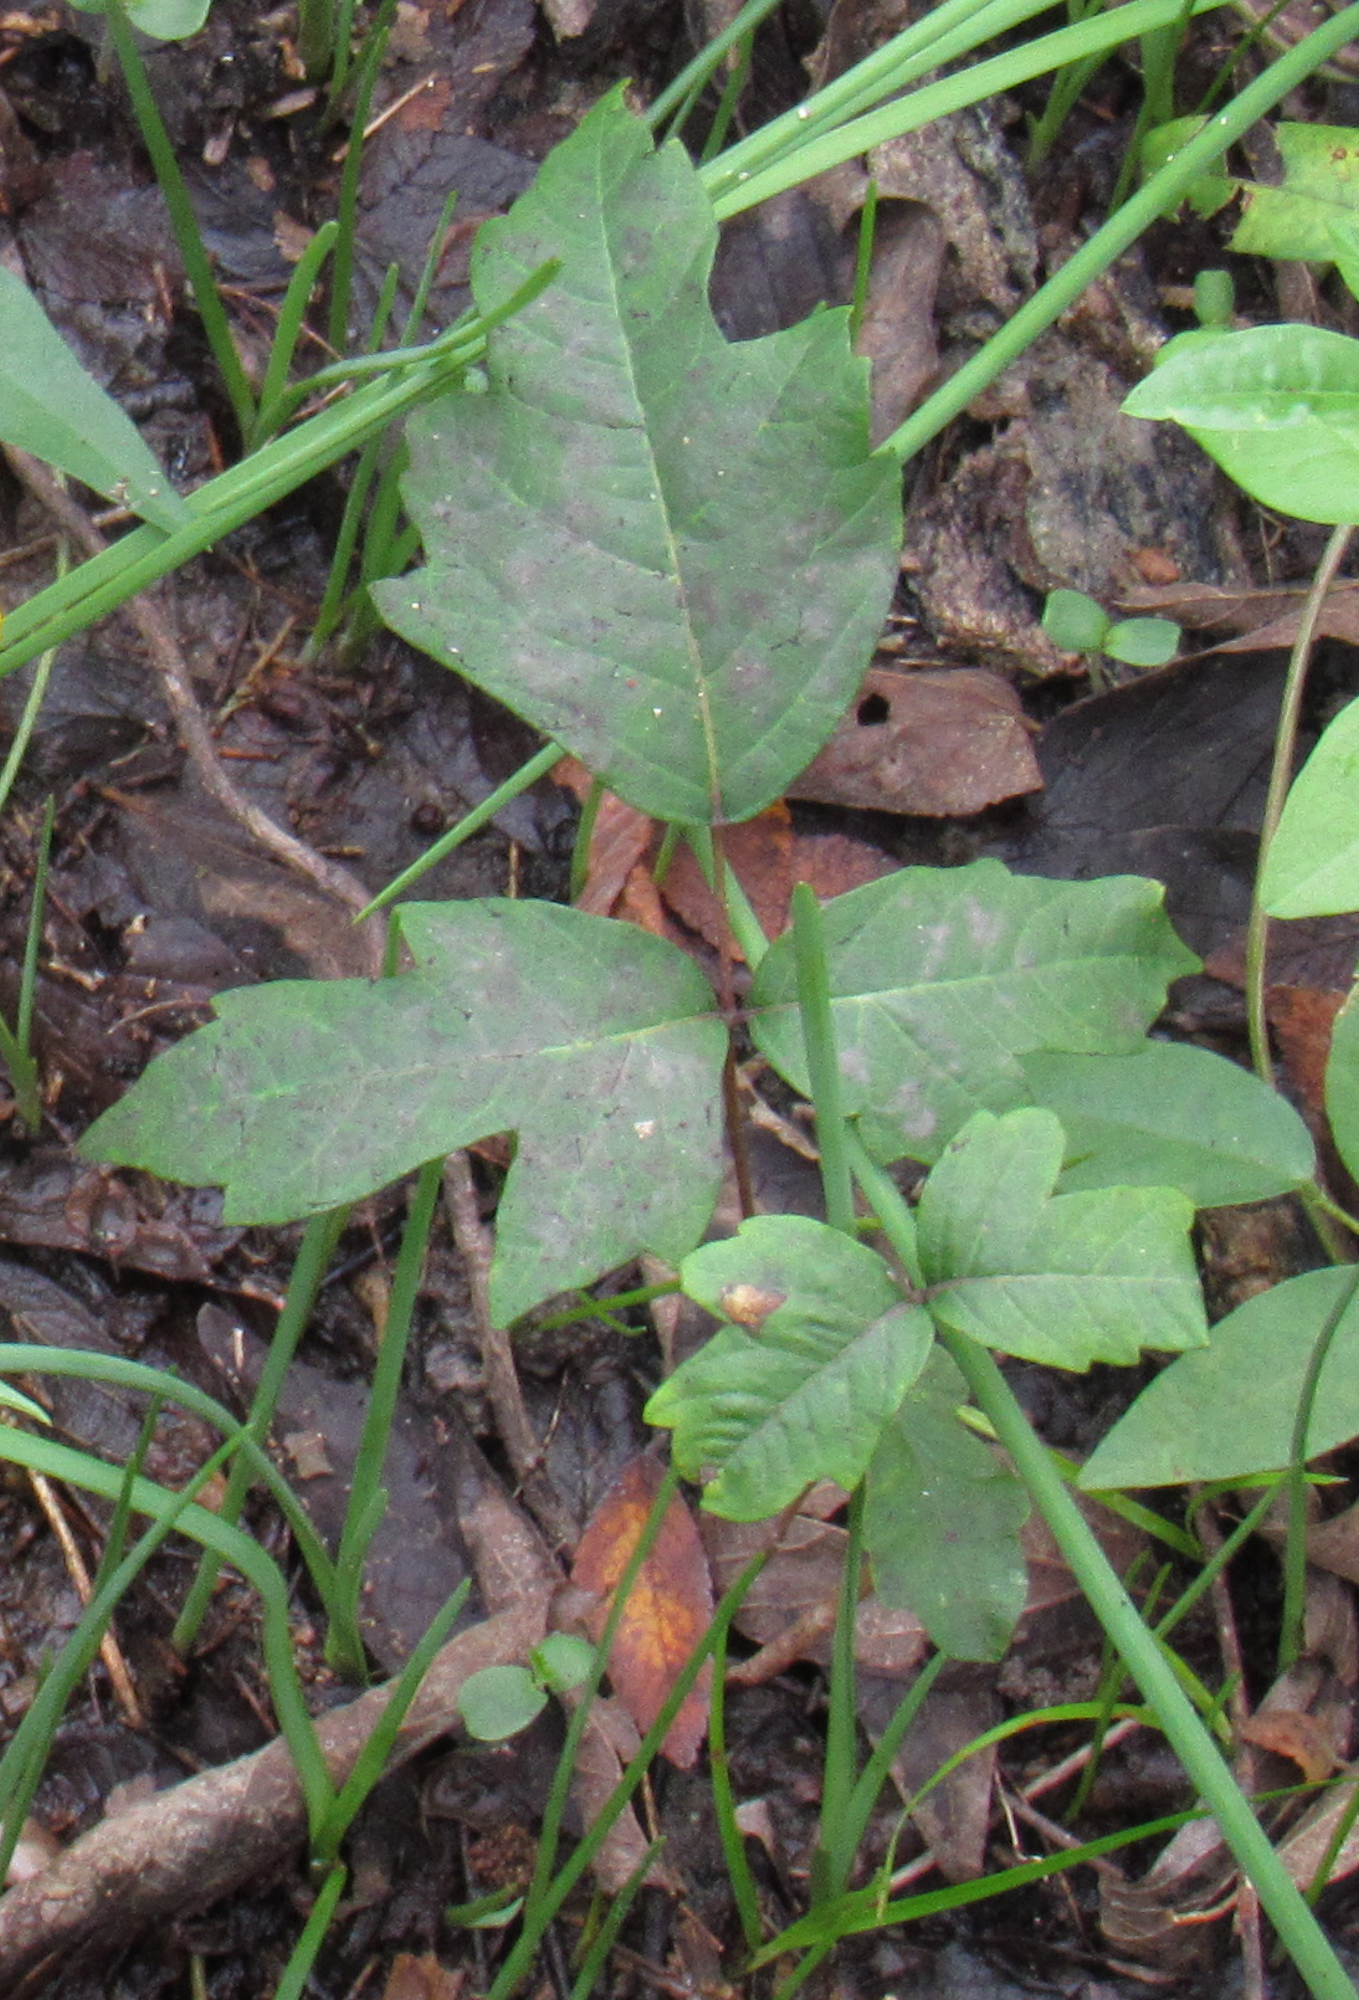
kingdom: Plantae
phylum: Tracheophyta
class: Magnoliopsida
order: Sapindales
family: Anacardiaceae
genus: Toxicodendron
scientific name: Toxicodendron radicans
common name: Poison ivy
